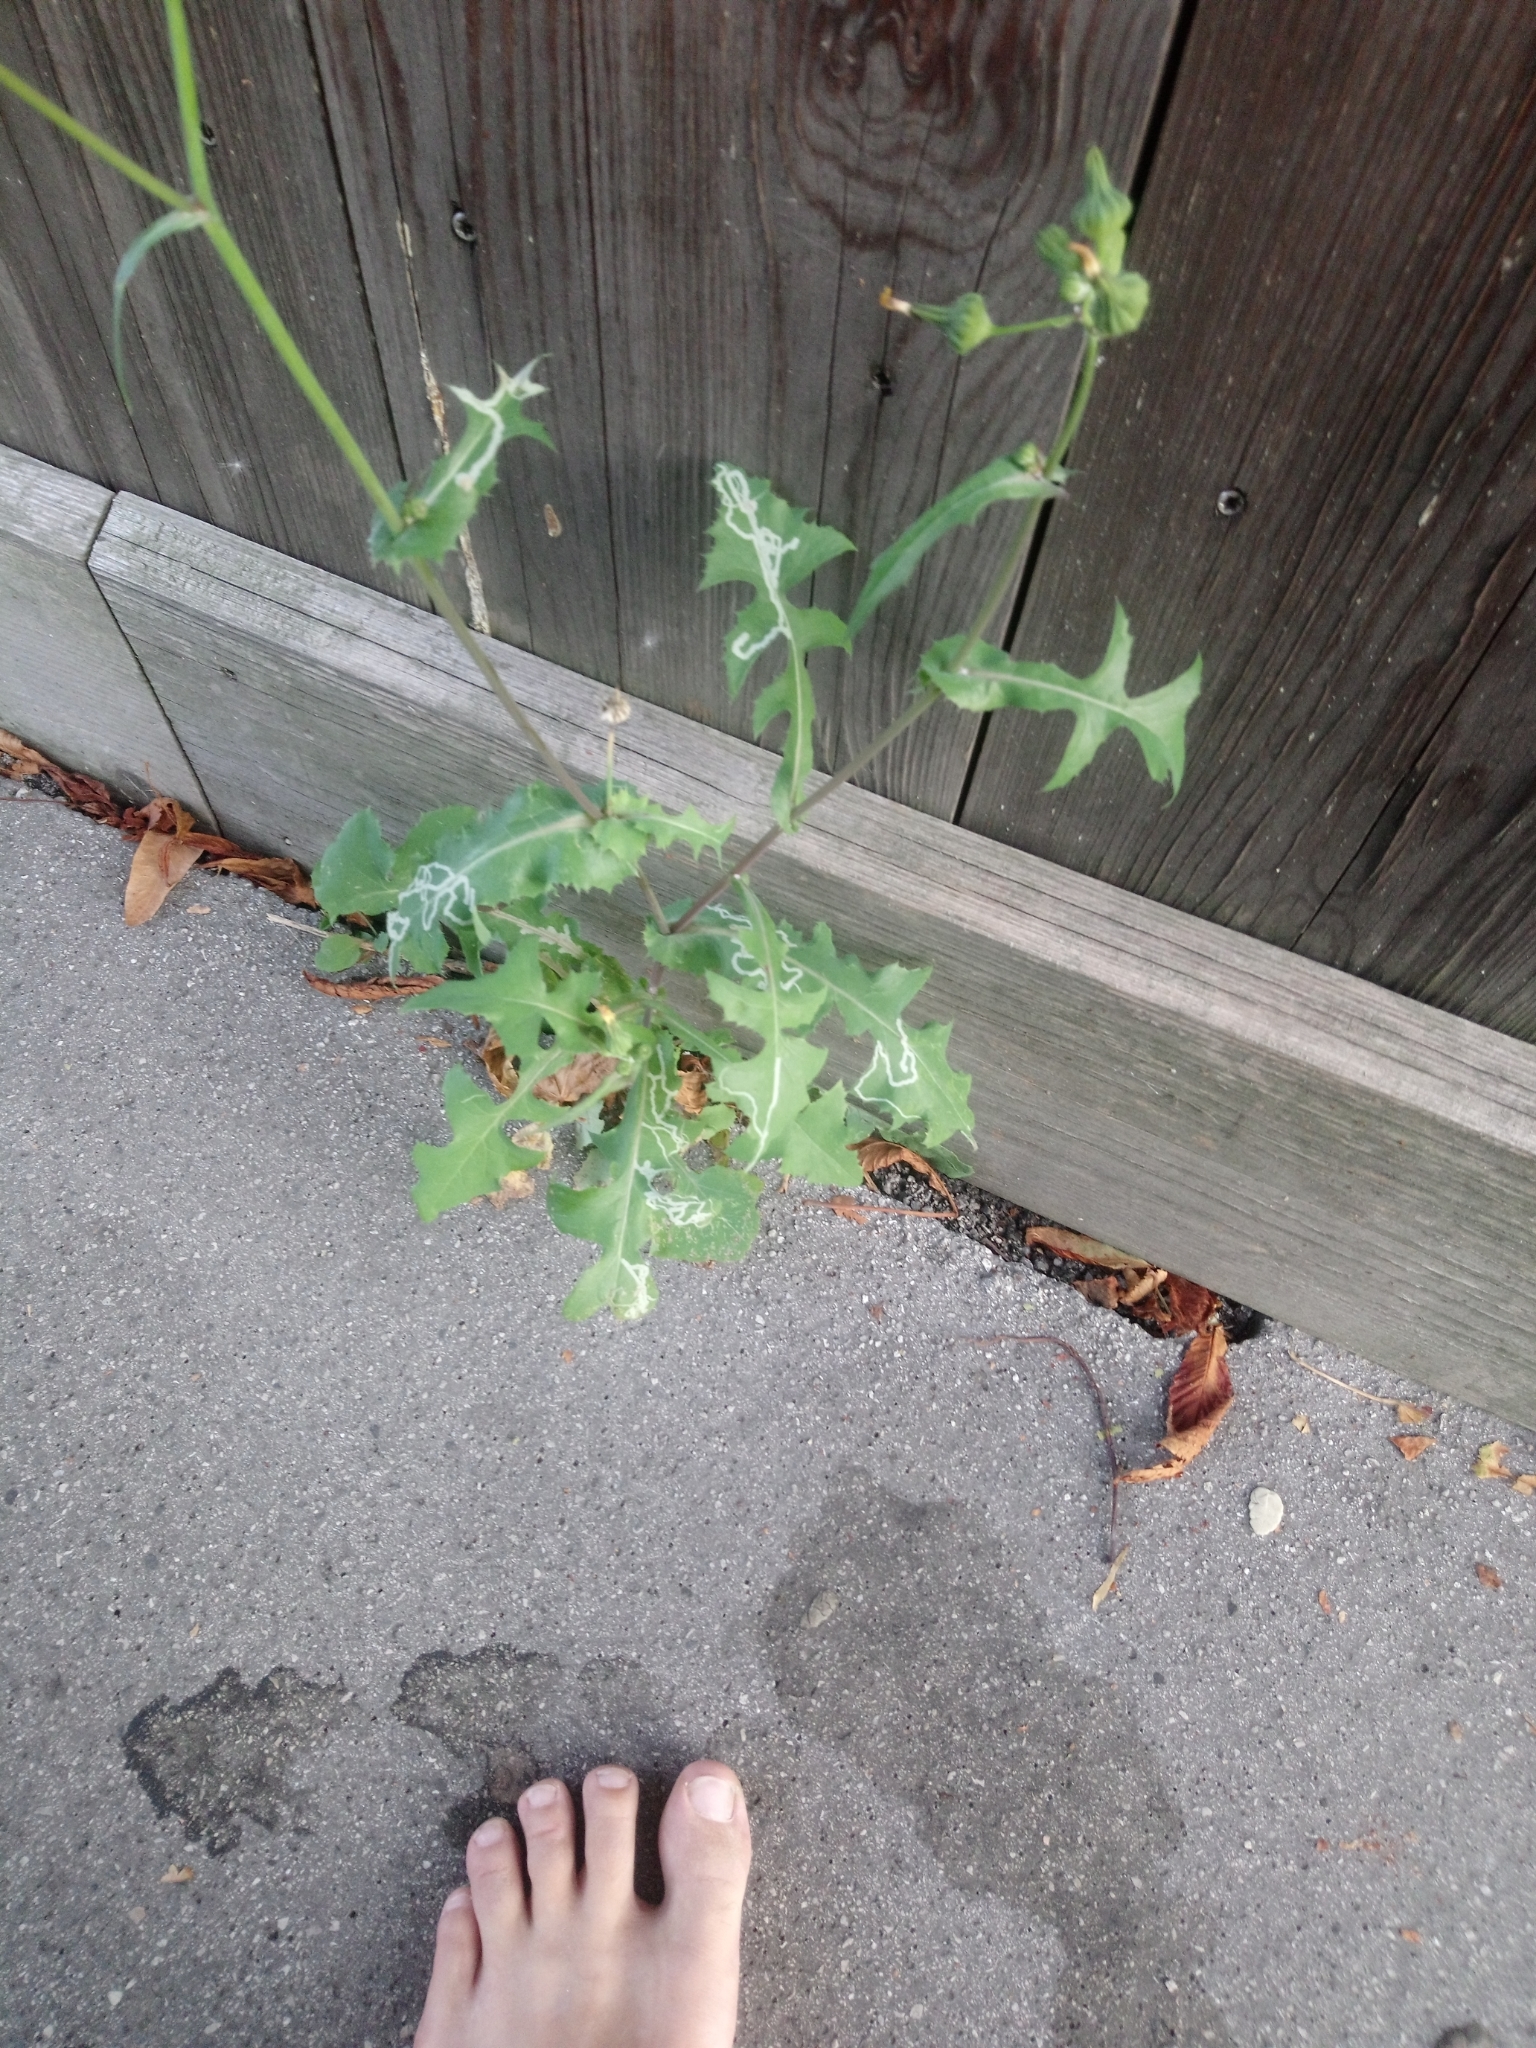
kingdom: Plantae
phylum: Tracheophyta
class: Magnoliopsida
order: Asterales
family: Asteraceae
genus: Sonchus
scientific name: Sonchus oleraceus
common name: Common sowthistle
